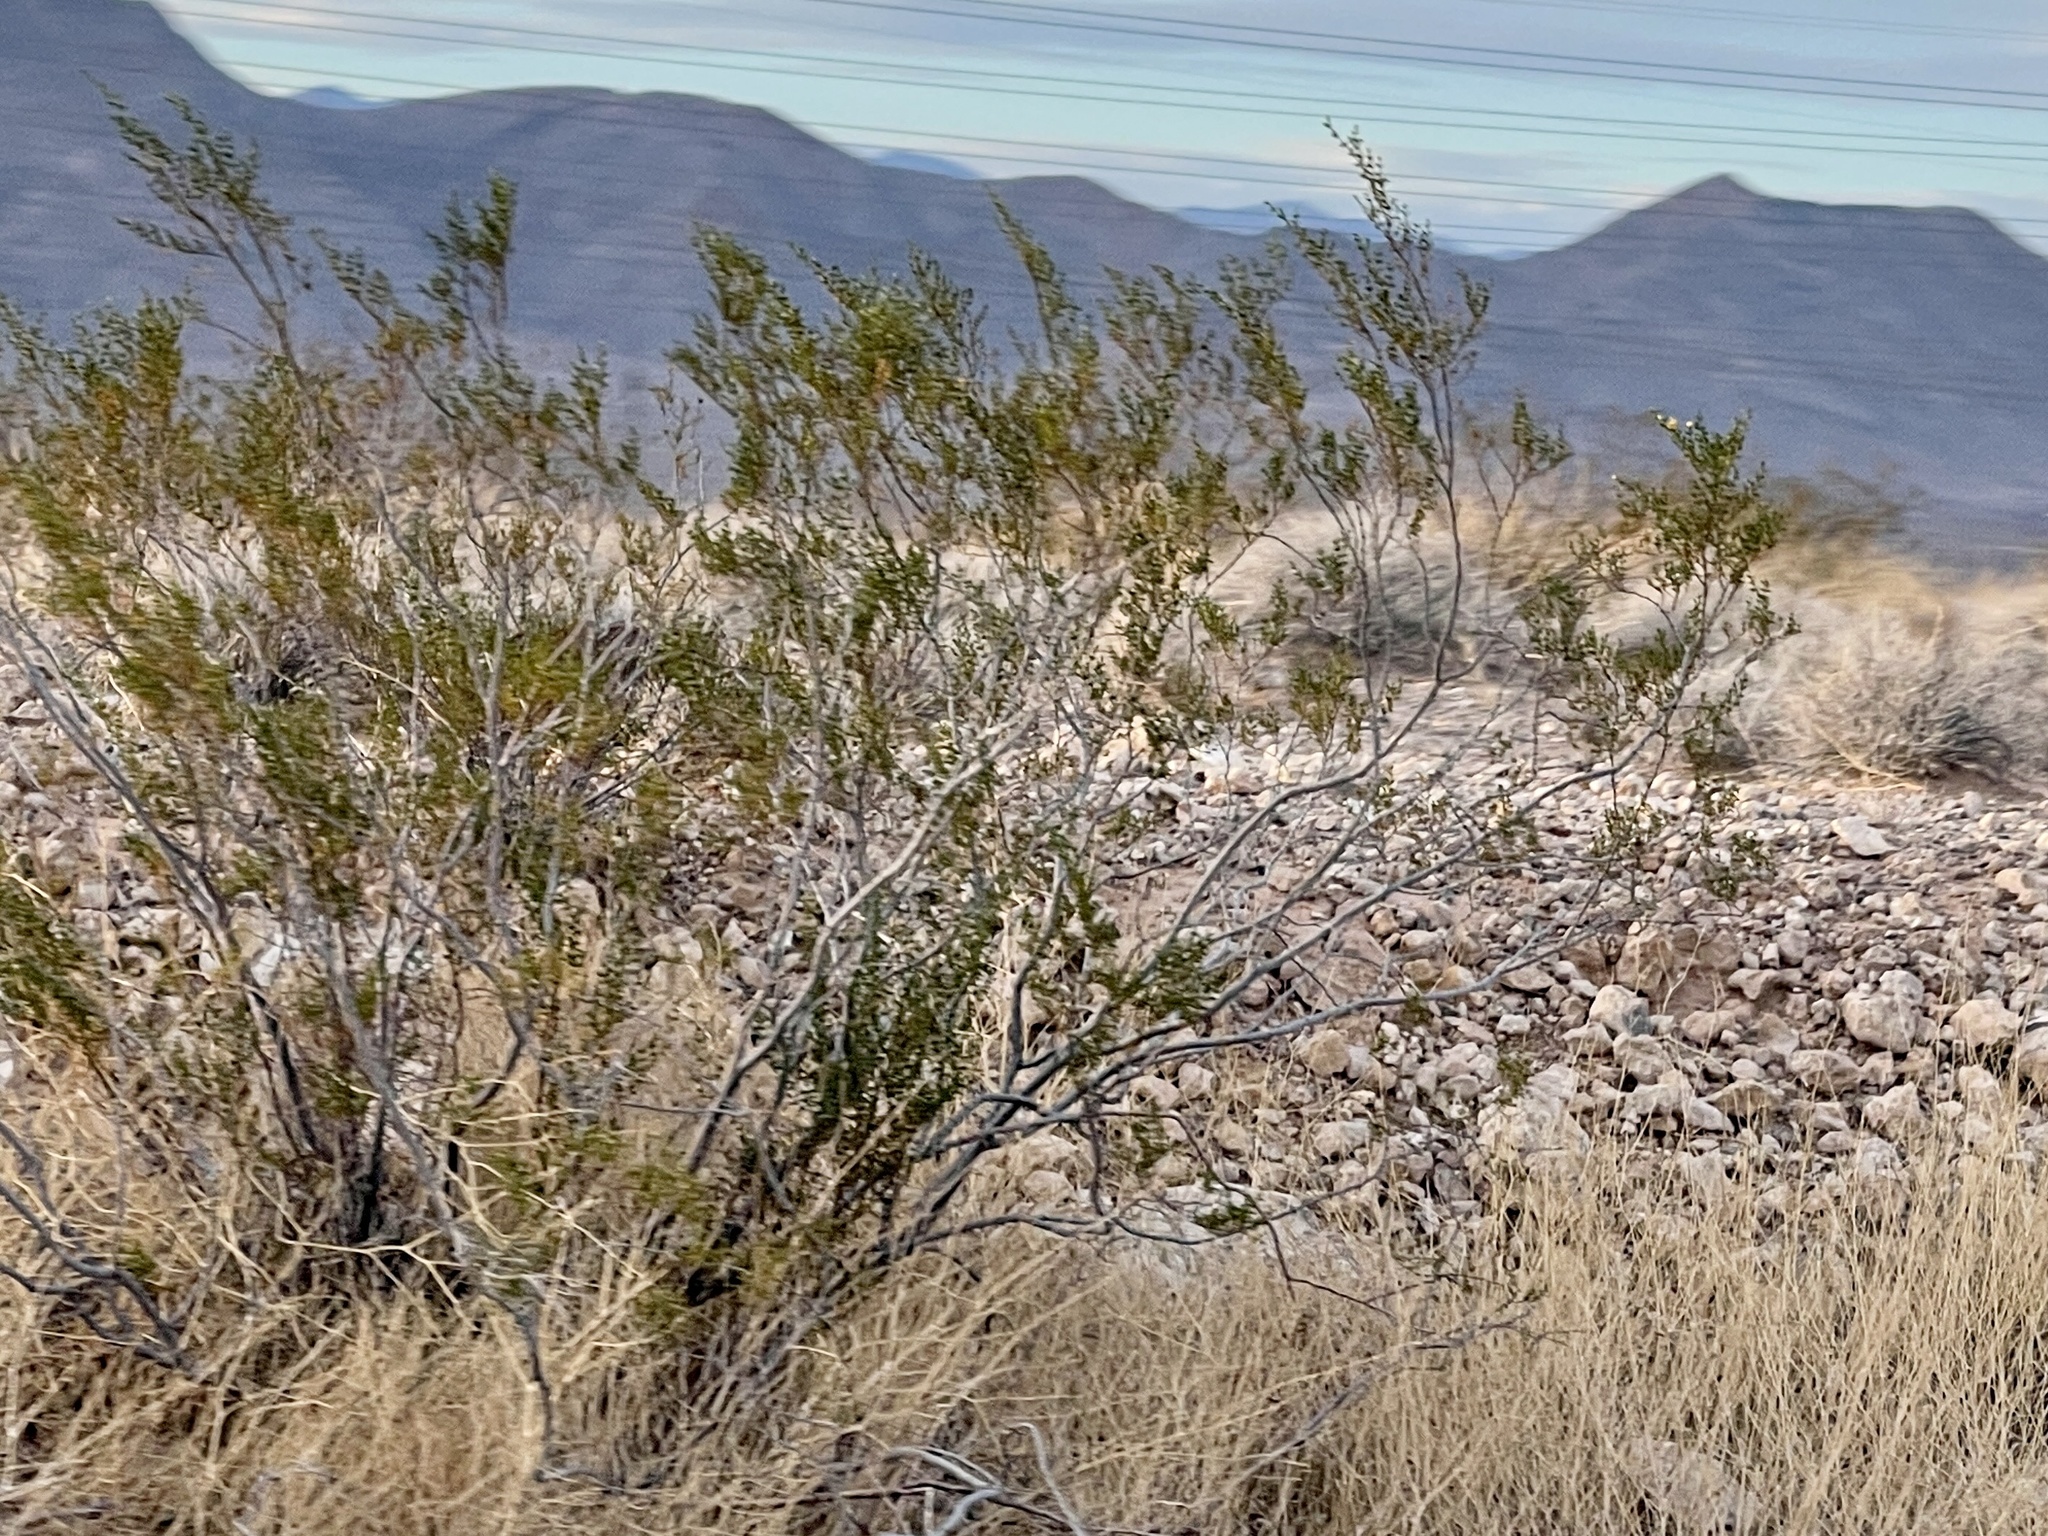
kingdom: Plantae
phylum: Tracheophyta
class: Magnoliopsida
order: Zygophyllales
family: Zygophyllaceae
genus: Larrea
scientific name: Larrea tridentata
